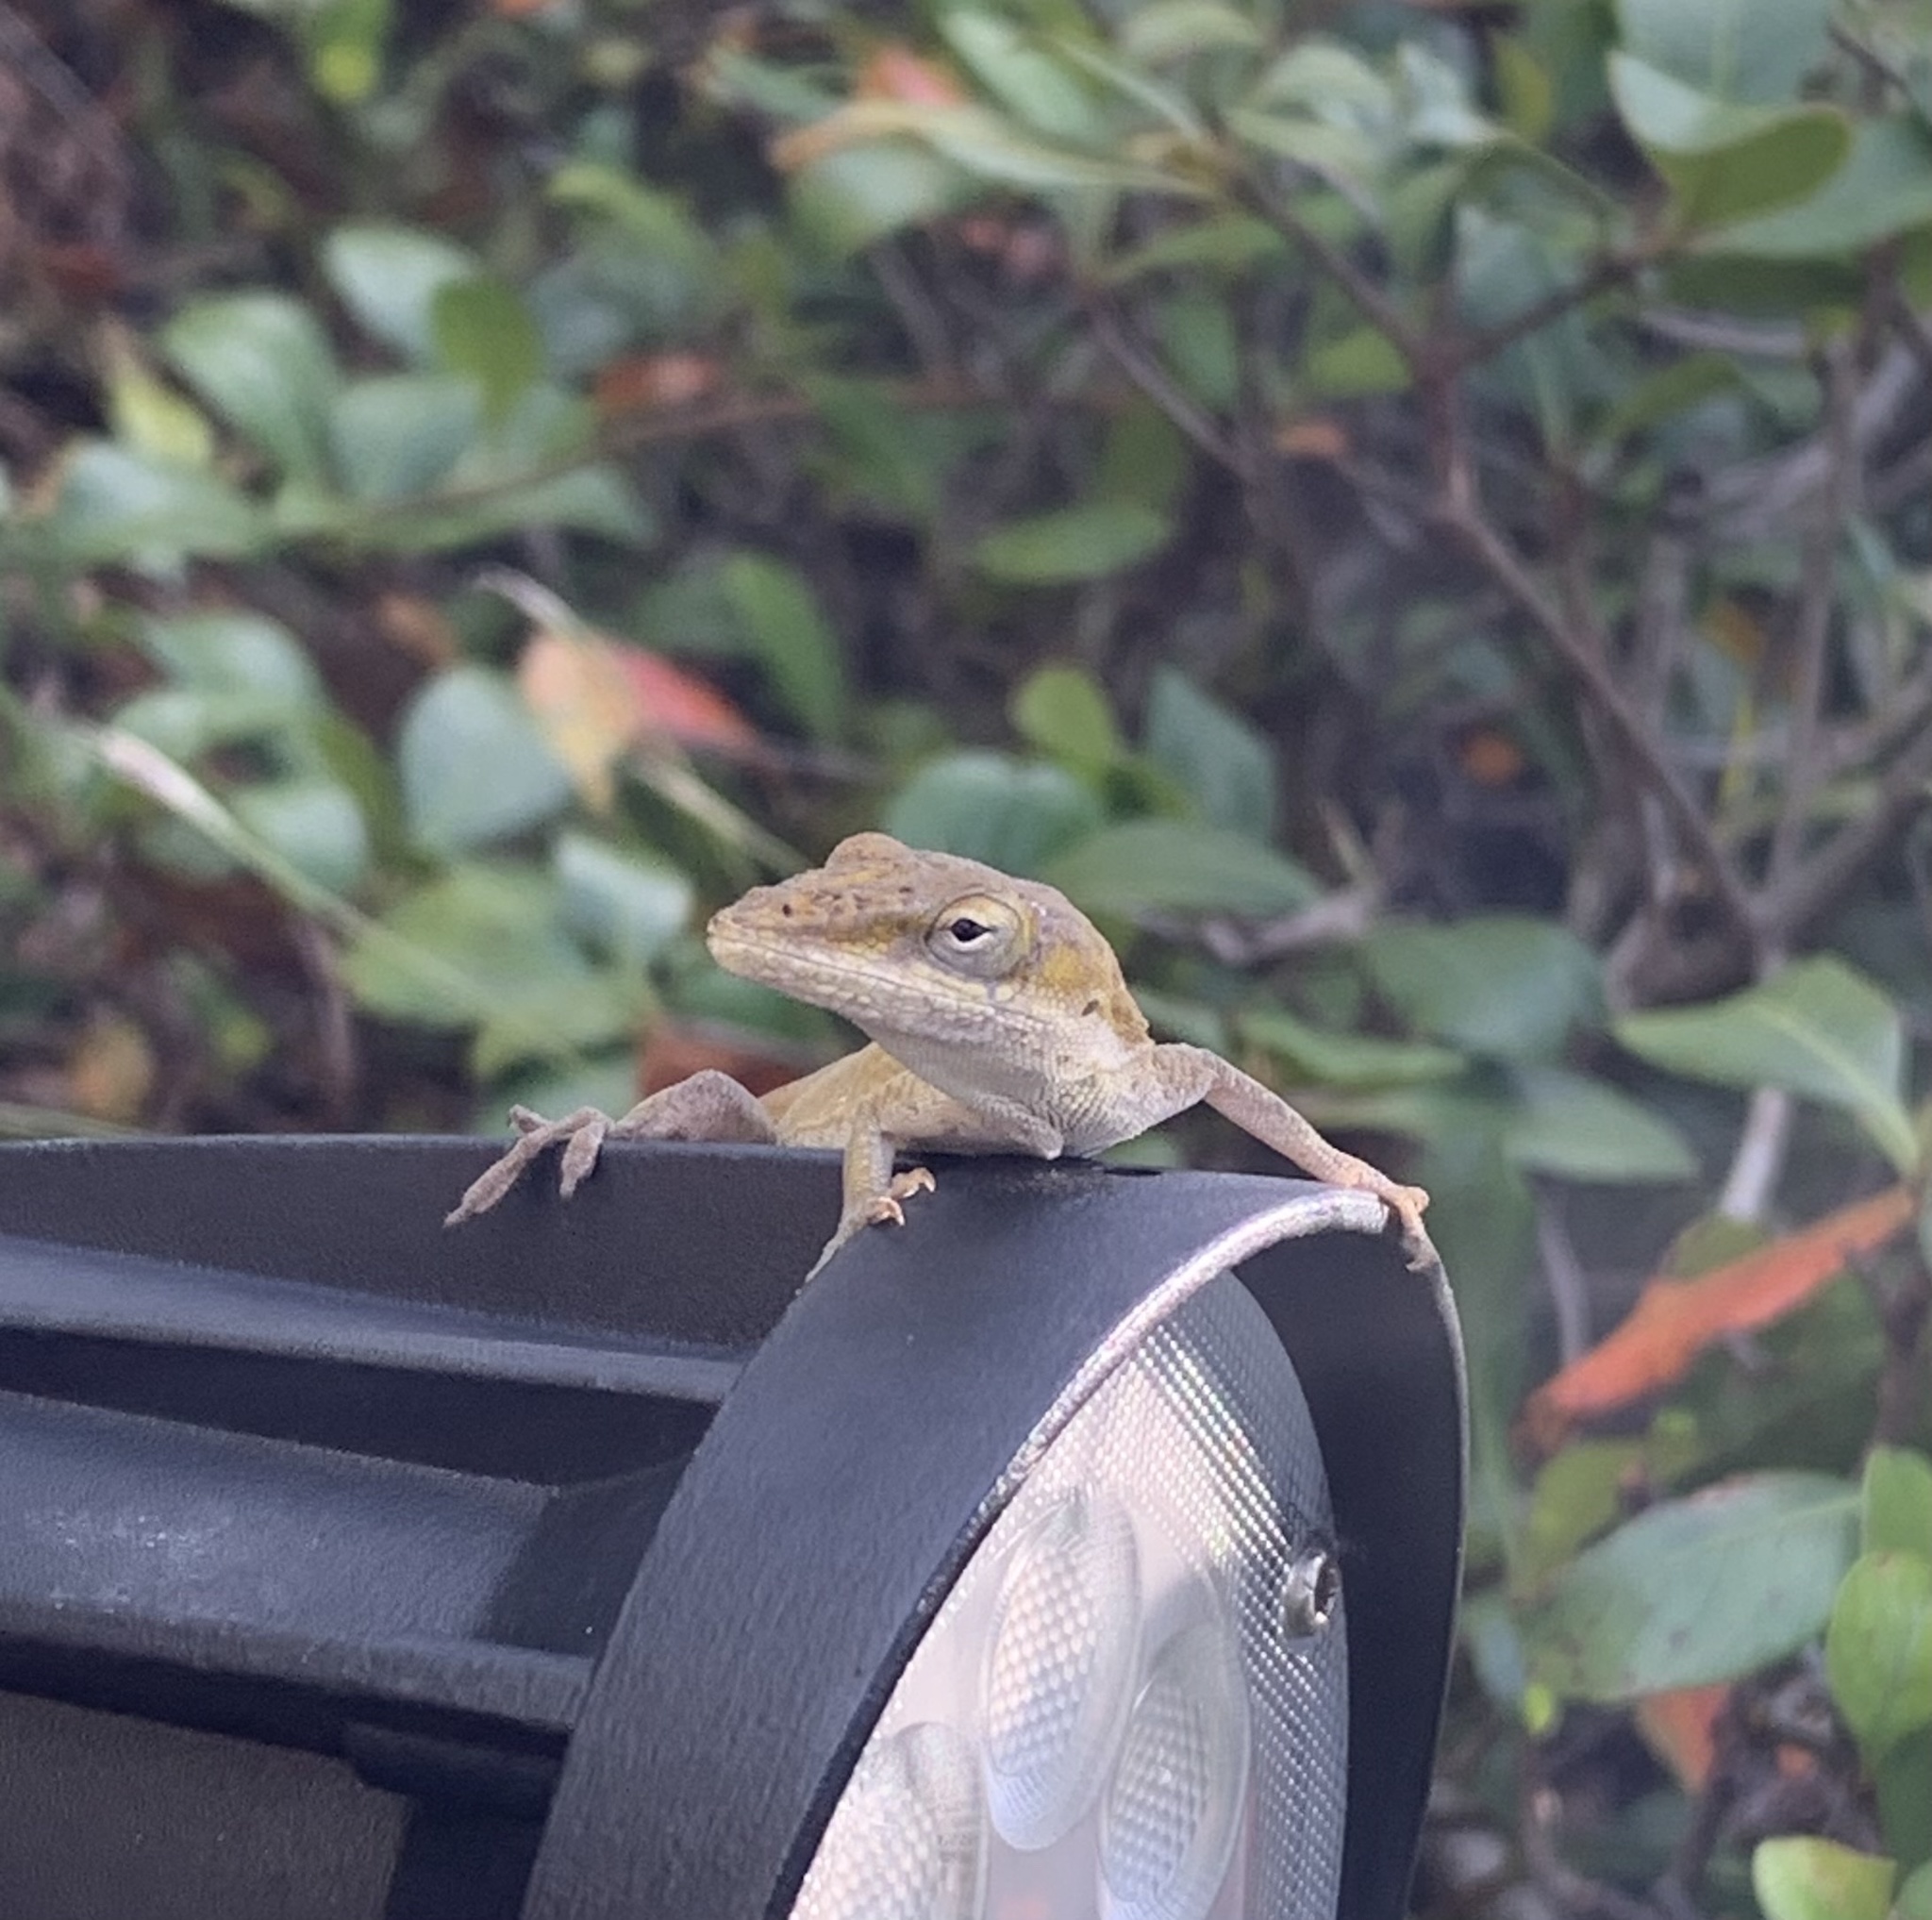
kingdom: Animalia
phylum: Chordata
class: Squamata
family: Dactyloidae
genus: Anolis
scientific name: Anolis carolinensis
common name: Green anole
